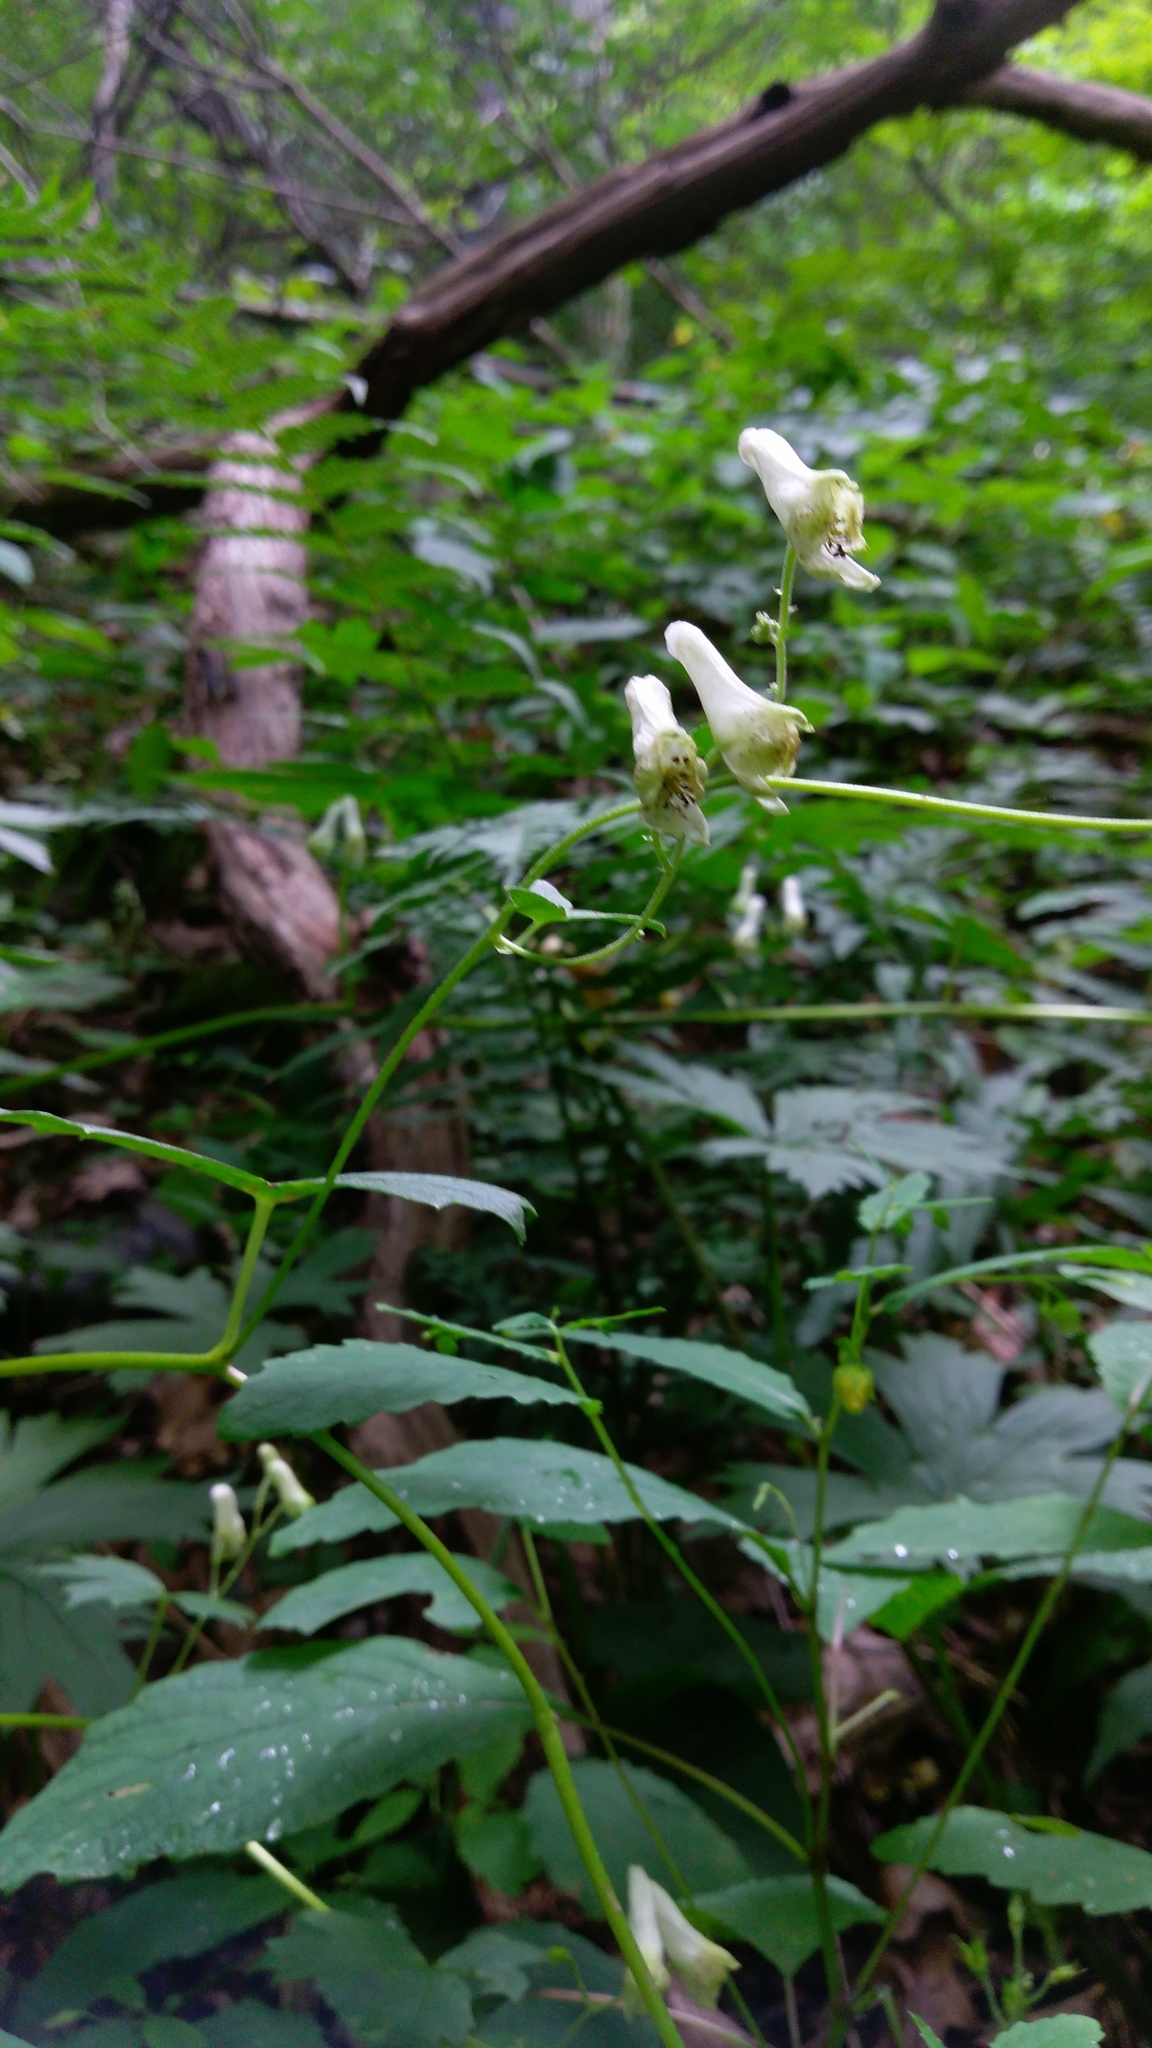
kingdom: Plantae
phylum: Tracheophyta
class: Magnoliopsida
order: Ranunculales
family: Ranunculaceae
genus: Aconitum
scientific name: Aconitum reclinatum
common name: Trailing wolfsbane
